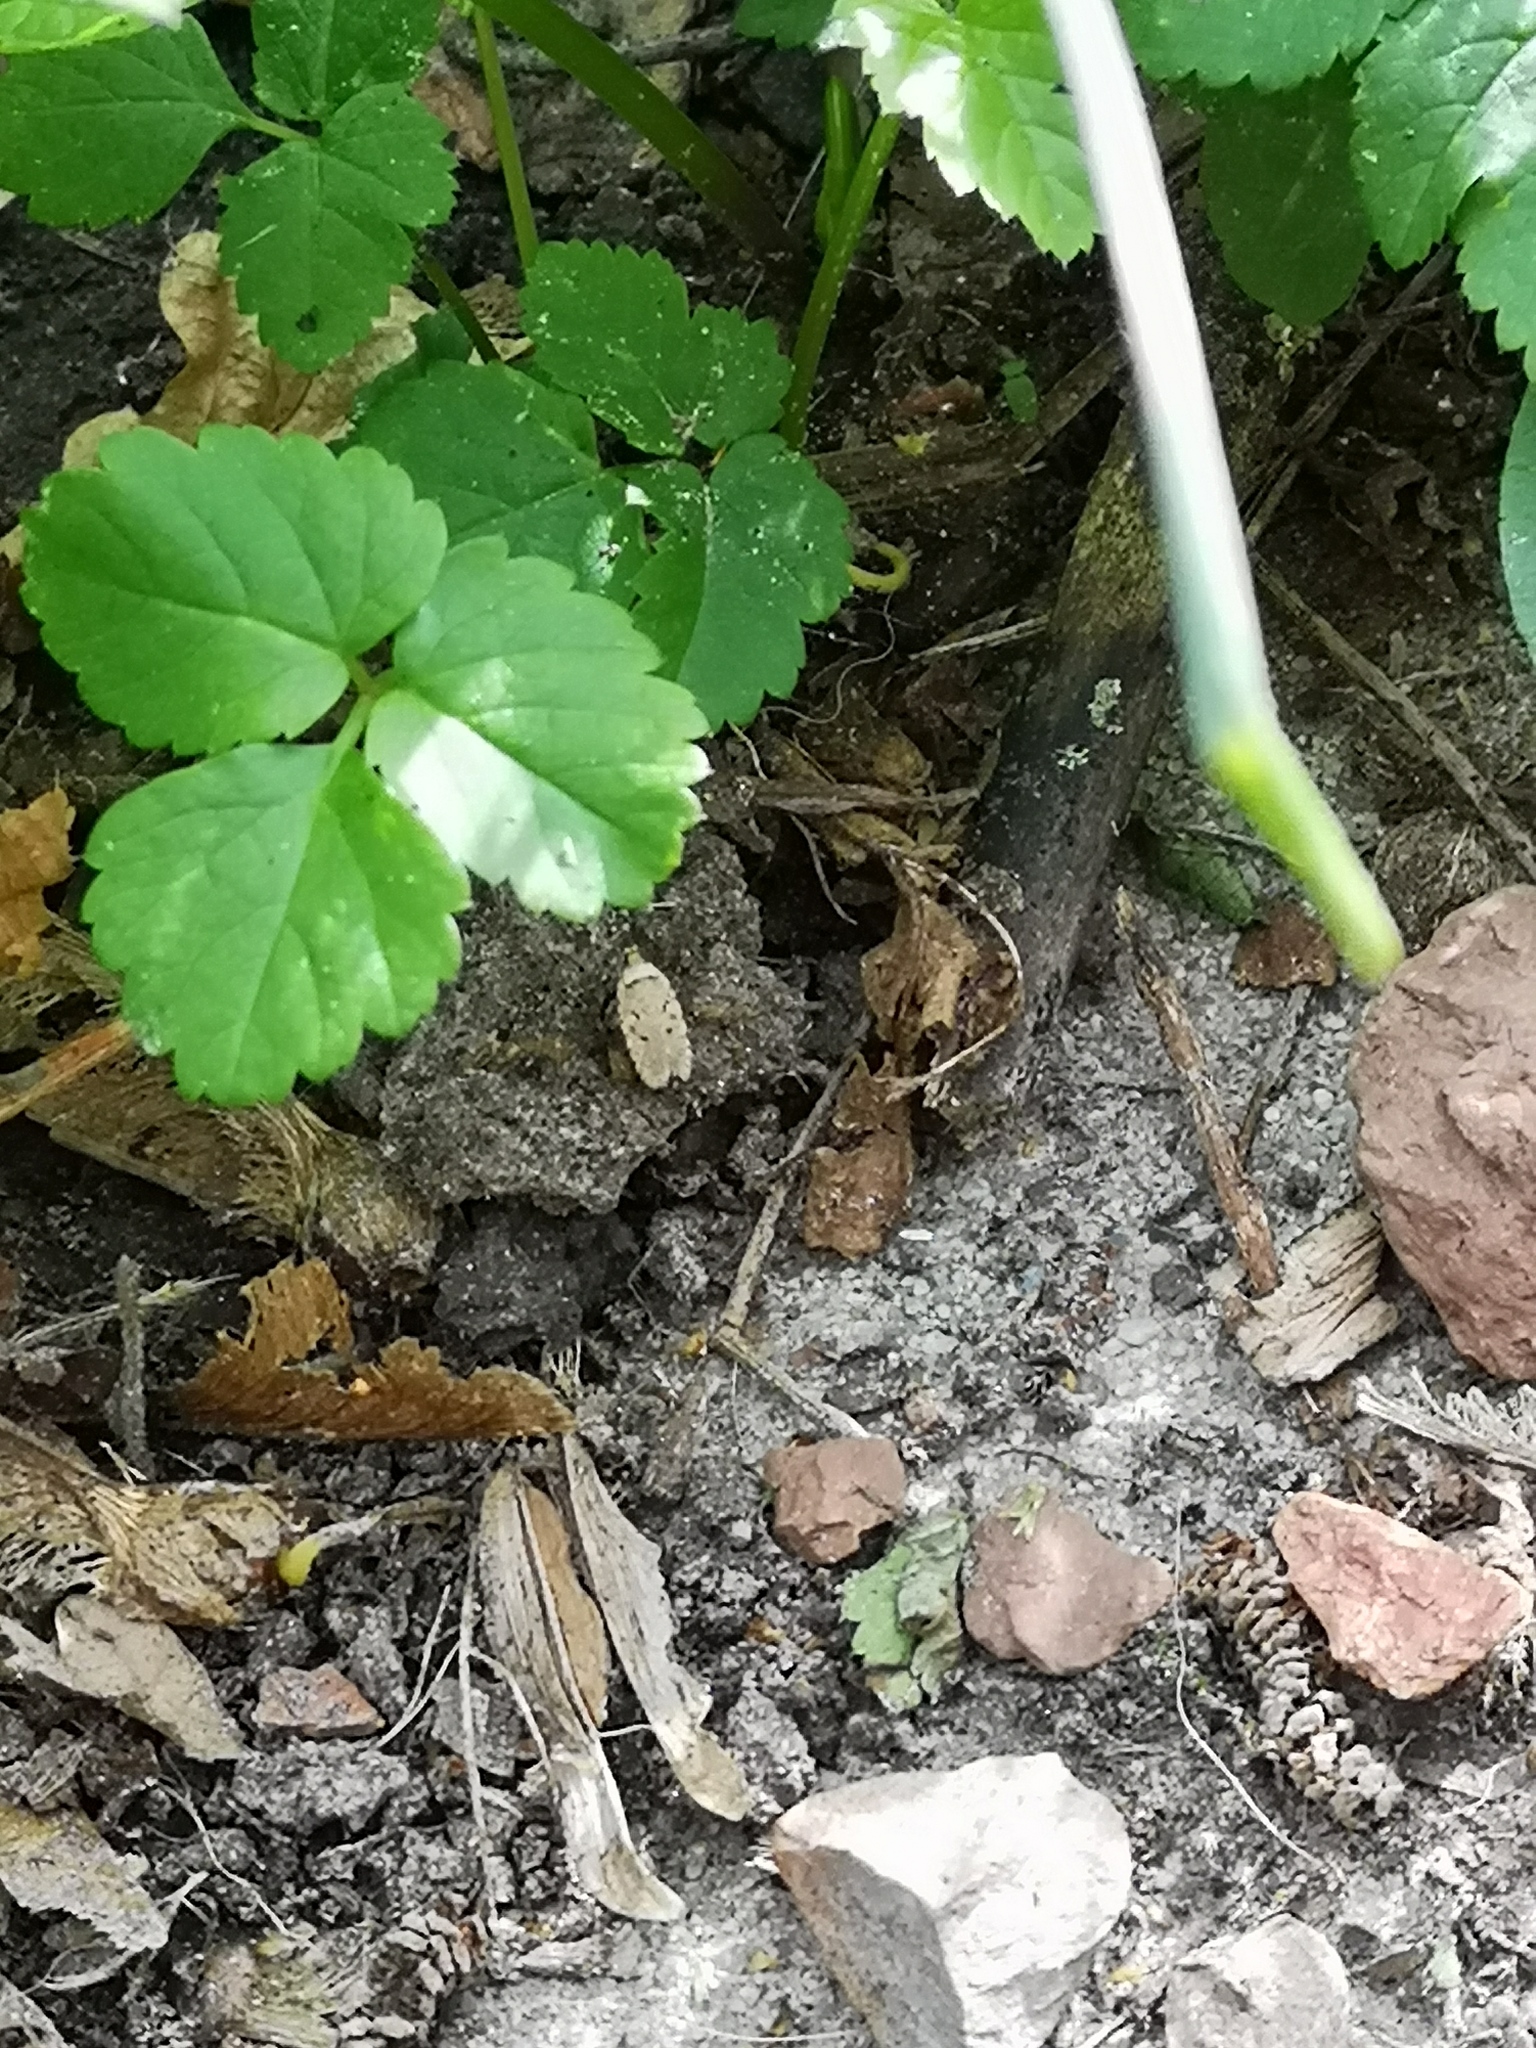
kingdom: Animalia
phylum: Arthropoda
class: Insecta
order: Lepidoptera
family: Depressariidae
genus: Agonopterix
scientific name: Agonopterix curvipunctosa
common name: Powdered flat-body
